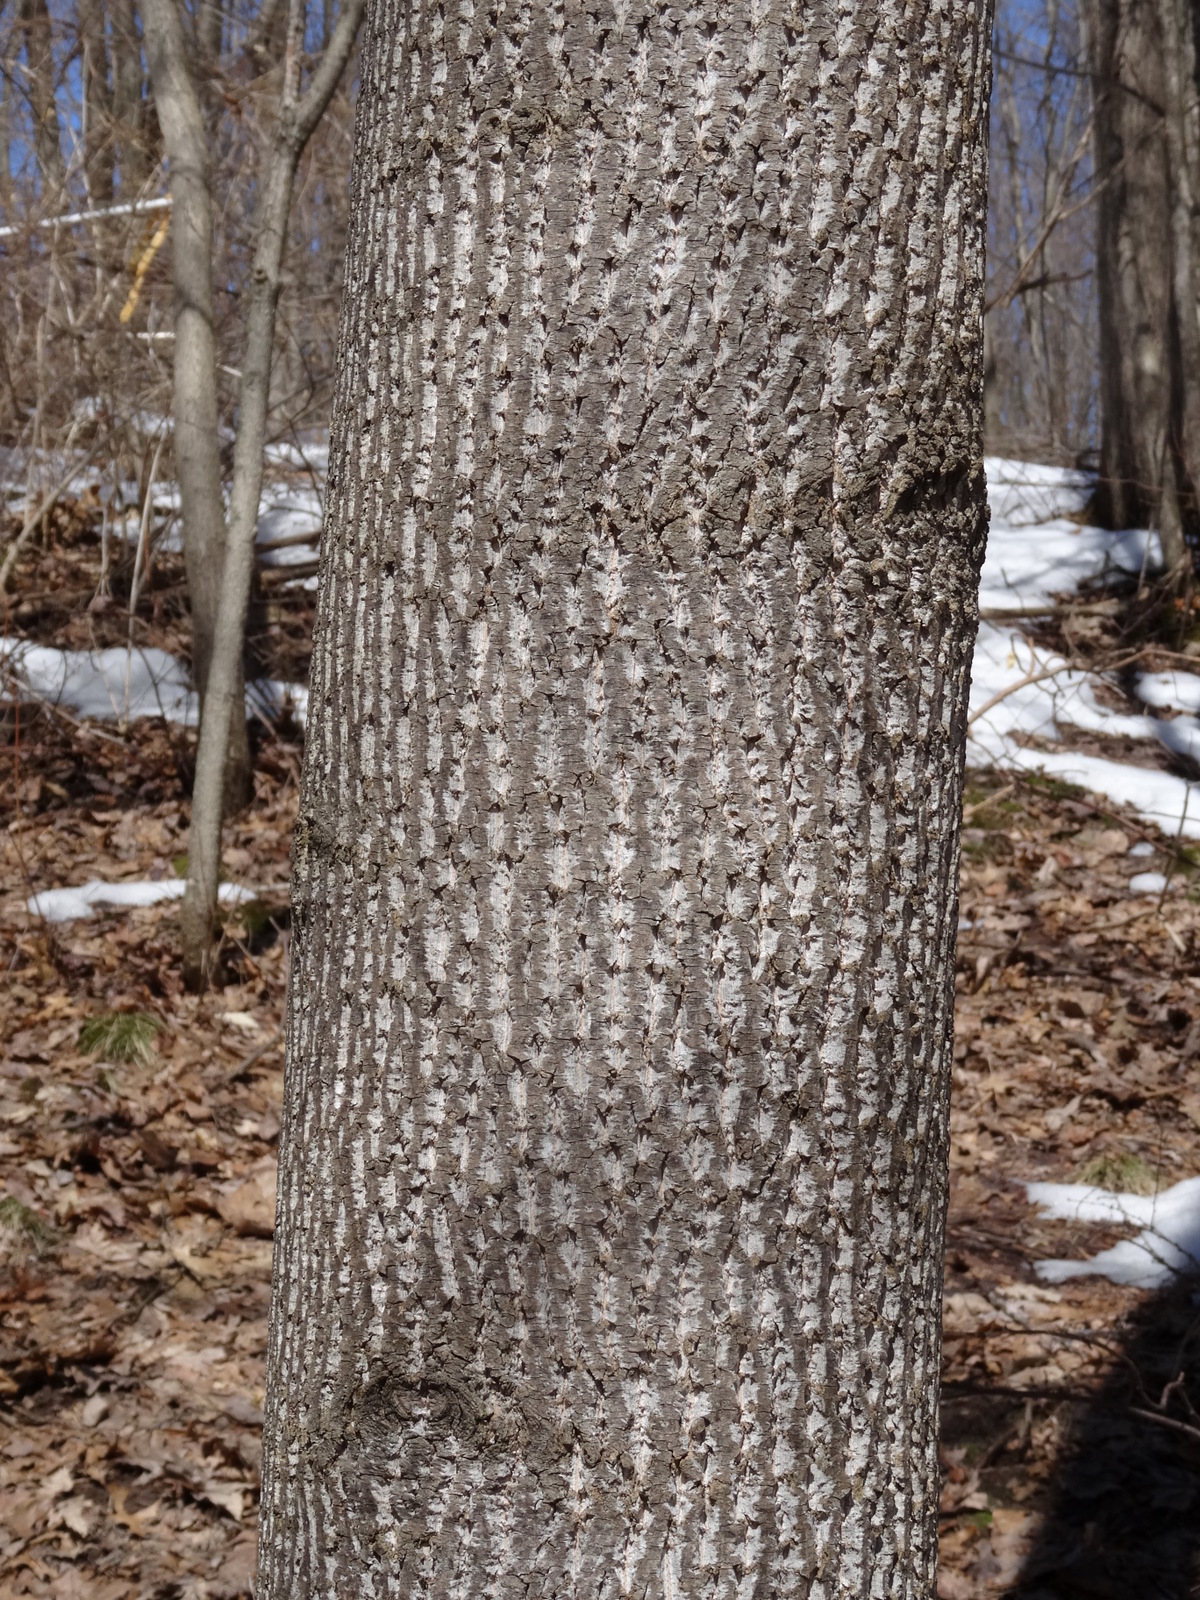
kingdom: Plantae
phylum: Tracheophyta
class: Magnoliopsida
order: Magnoliales
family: Magnoliaceae
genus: Liriodendron
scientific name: Liriodendron tulipifera
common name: Tulip tree
